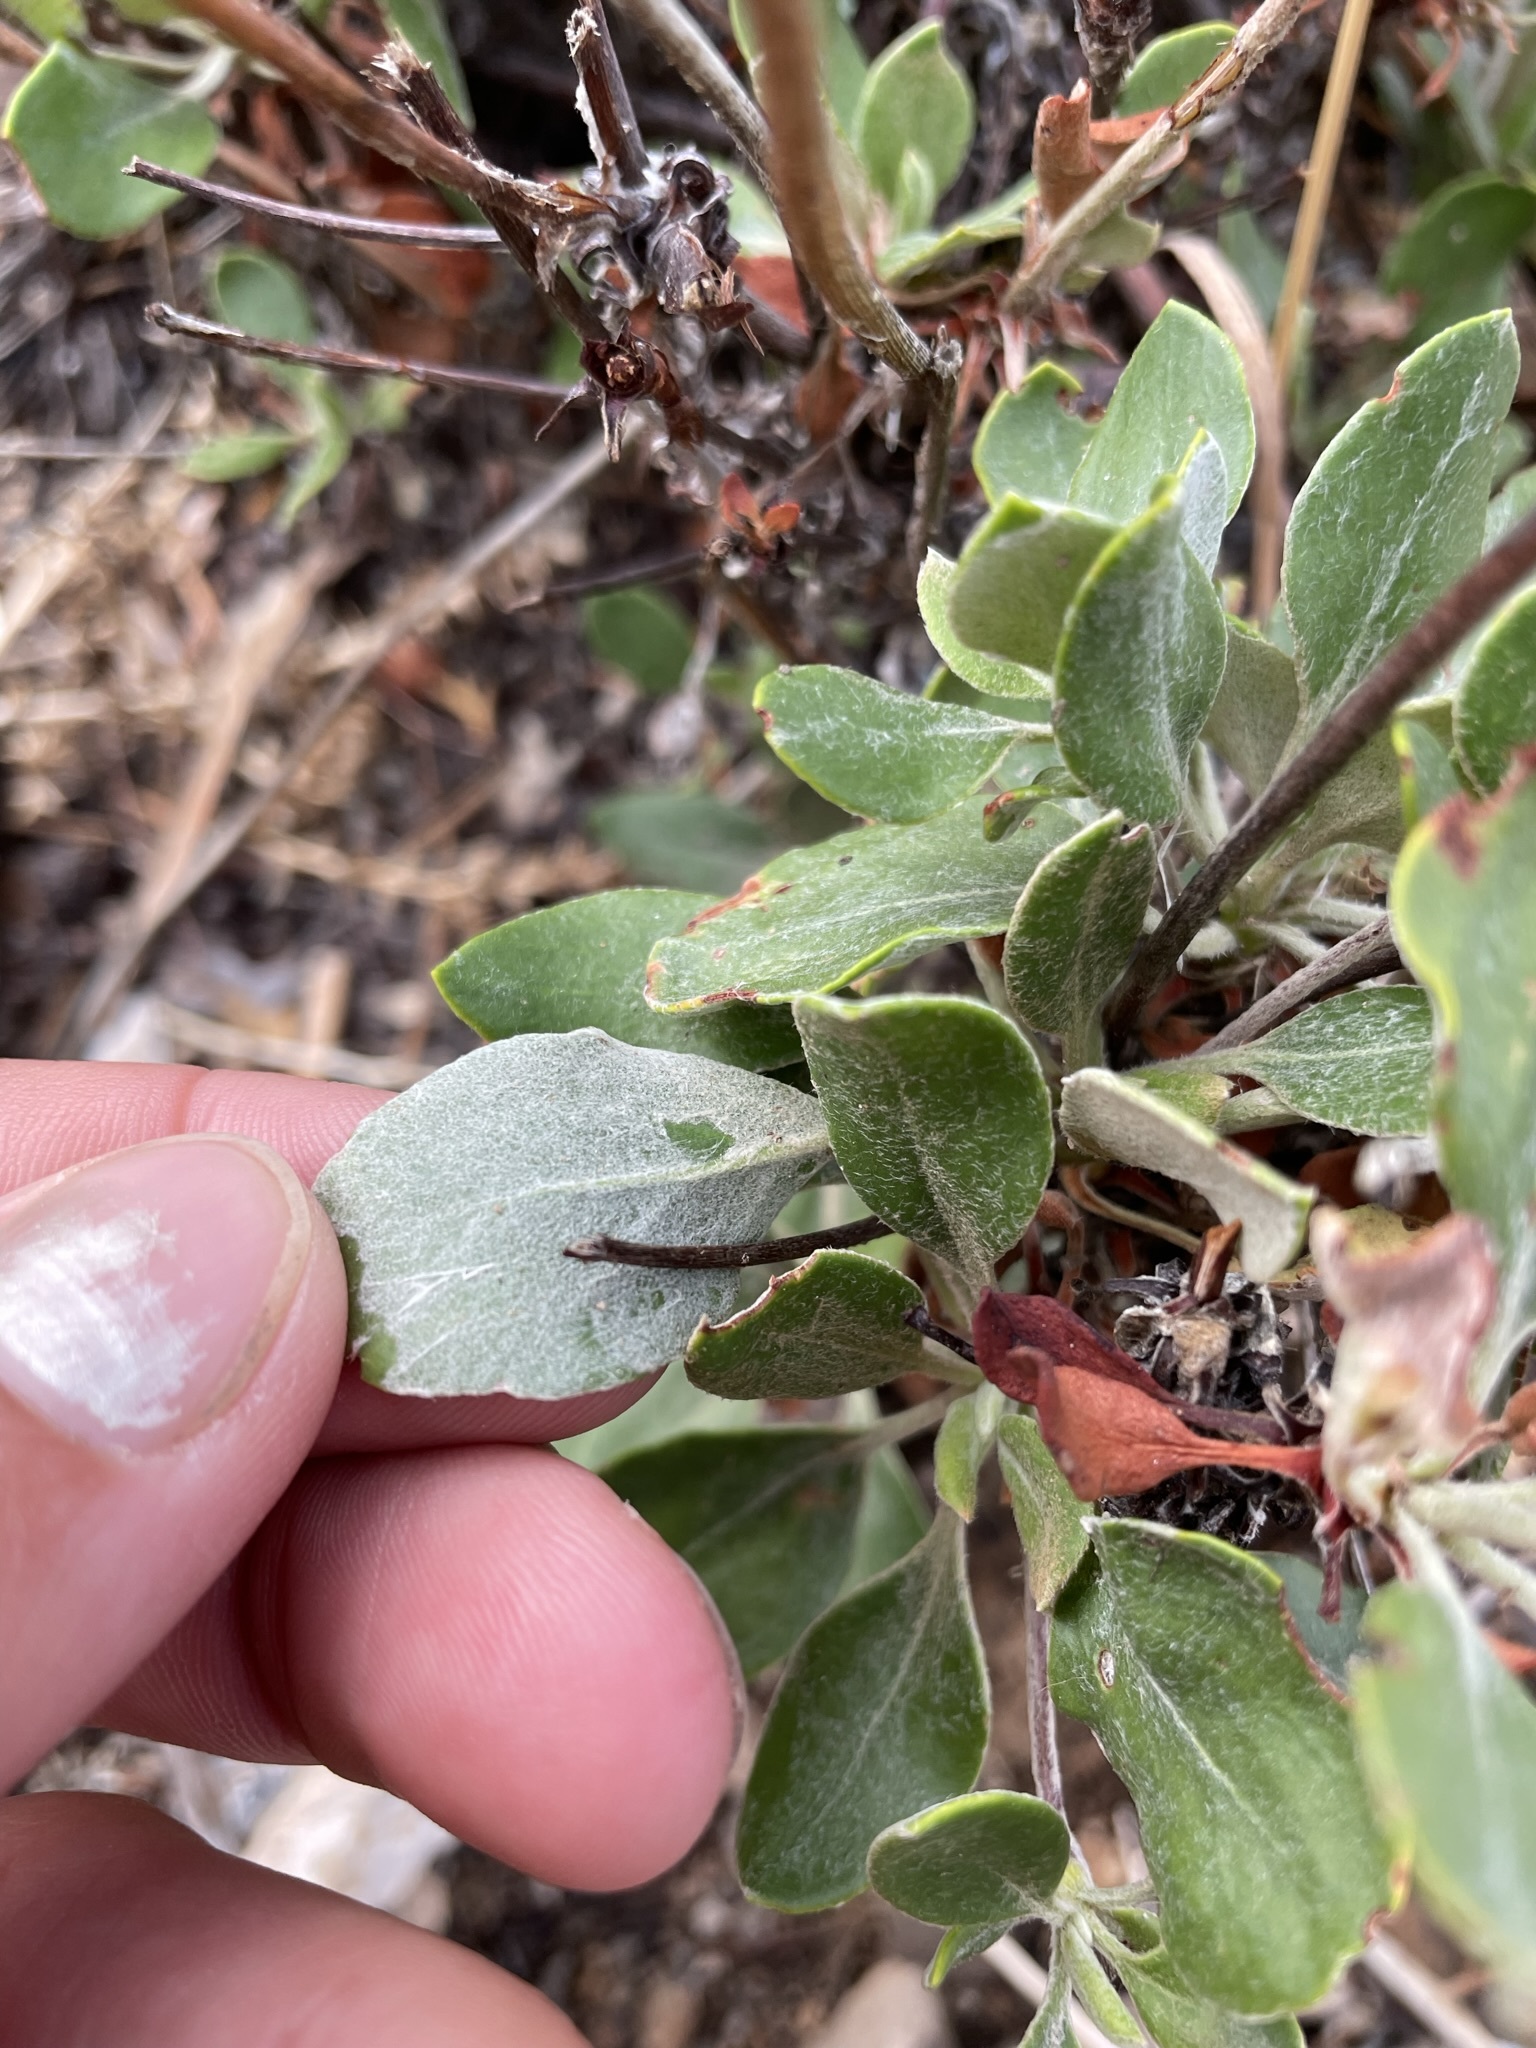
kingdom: Plantae
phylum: Tracheophyta
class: Magnoliopsida
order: Caryophyllales
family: Polygonaceae
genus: Eriogonum
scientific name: Eriogonum umbellatum
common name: Sulfur-buckwheat
